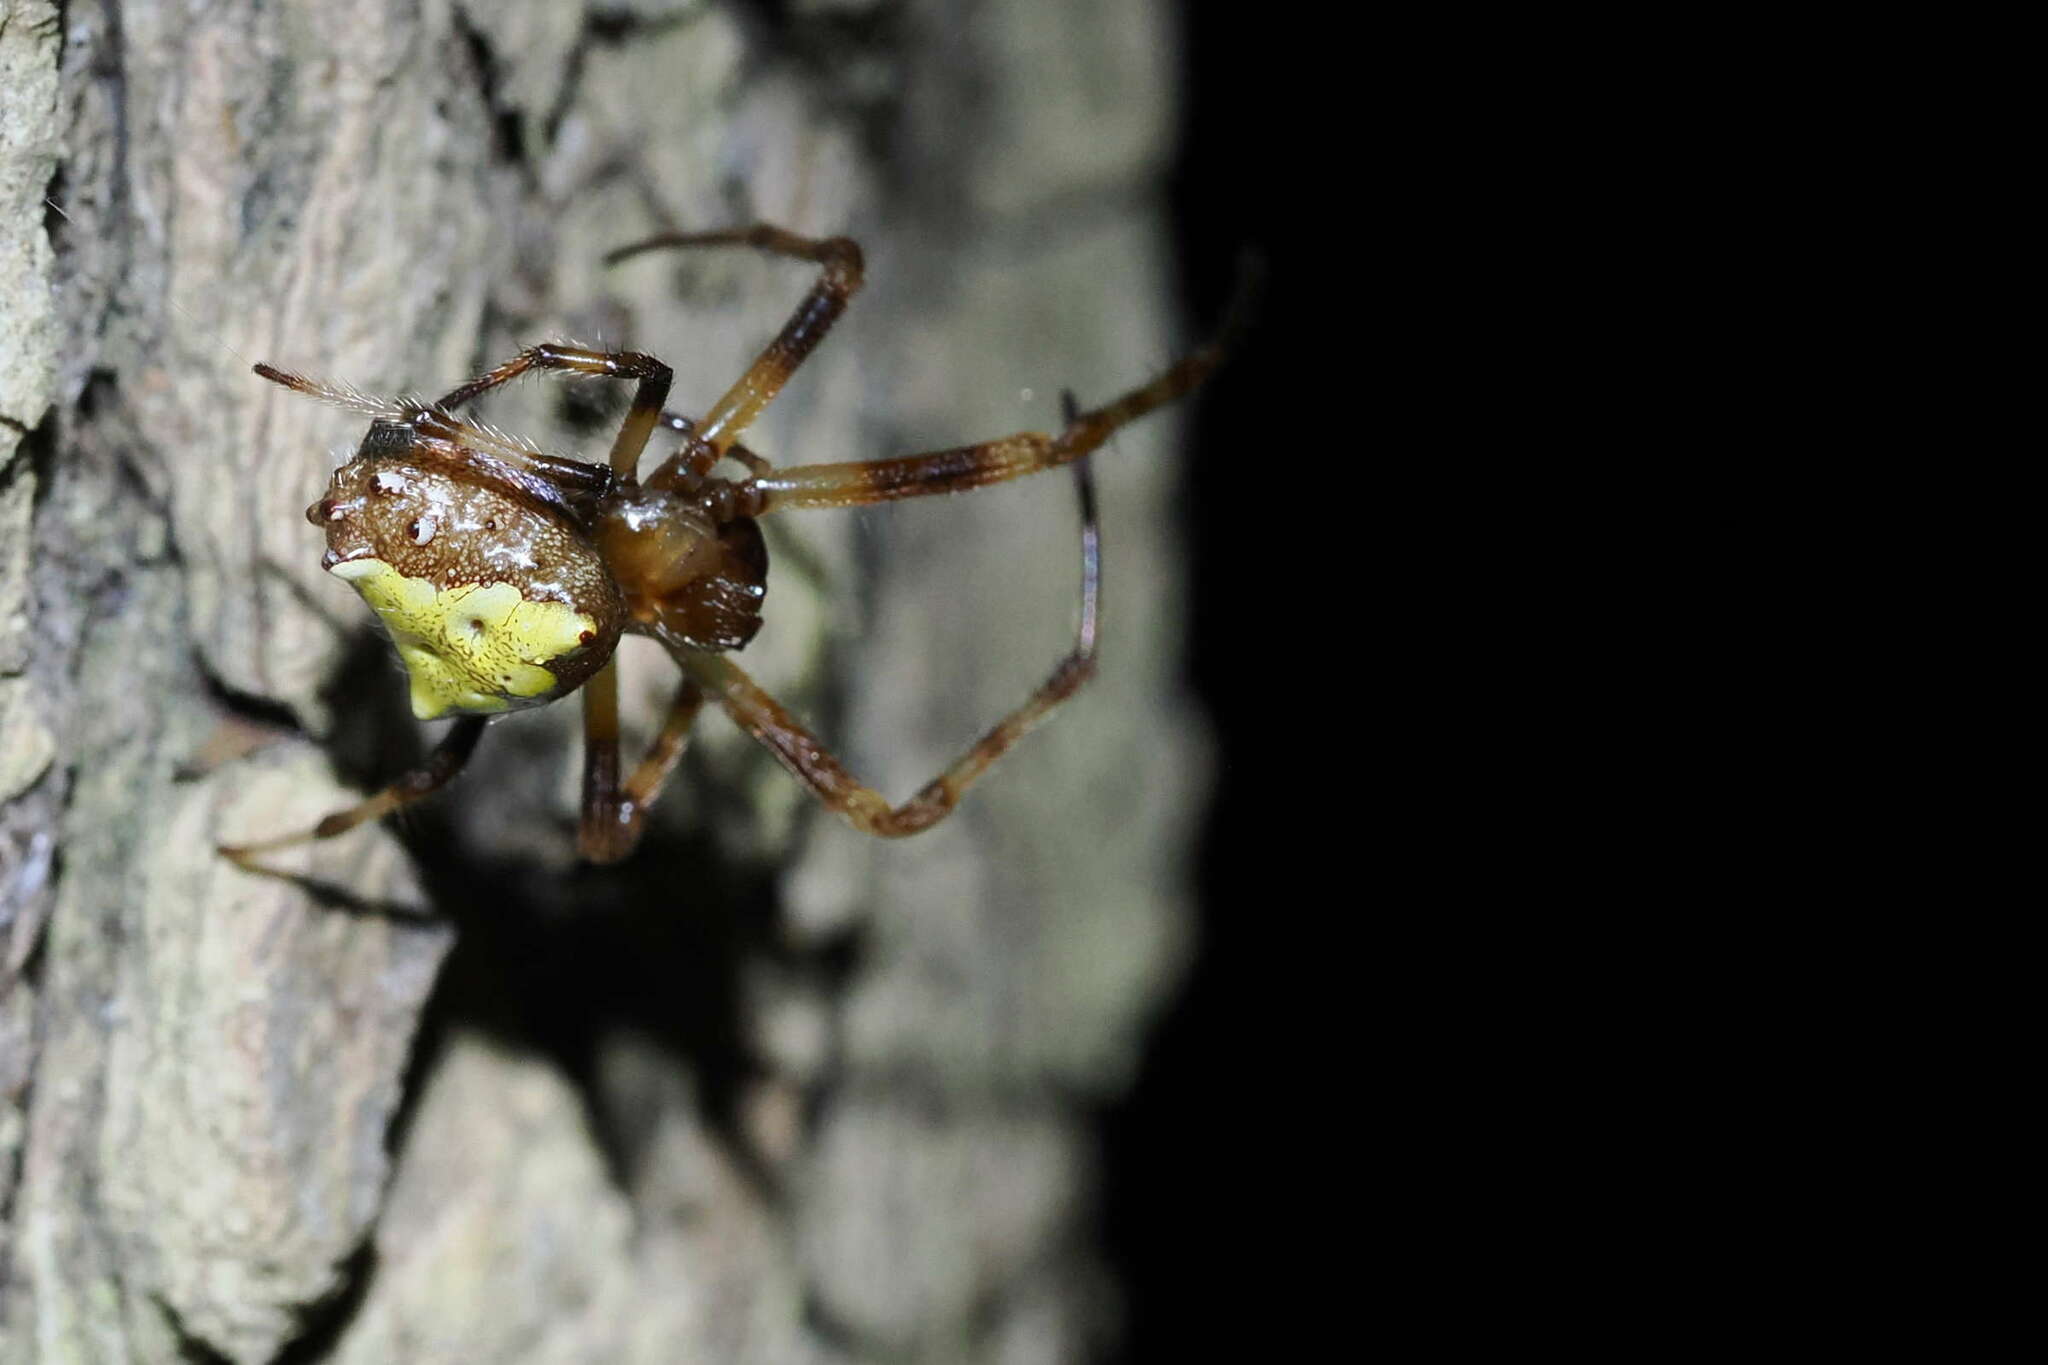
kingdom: Animalia
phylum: Arthropoda
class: Arachnida
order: Araneae
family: Araneidae
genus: Verrucosa
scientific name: Verrucosa arenata
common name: Orb weavers
